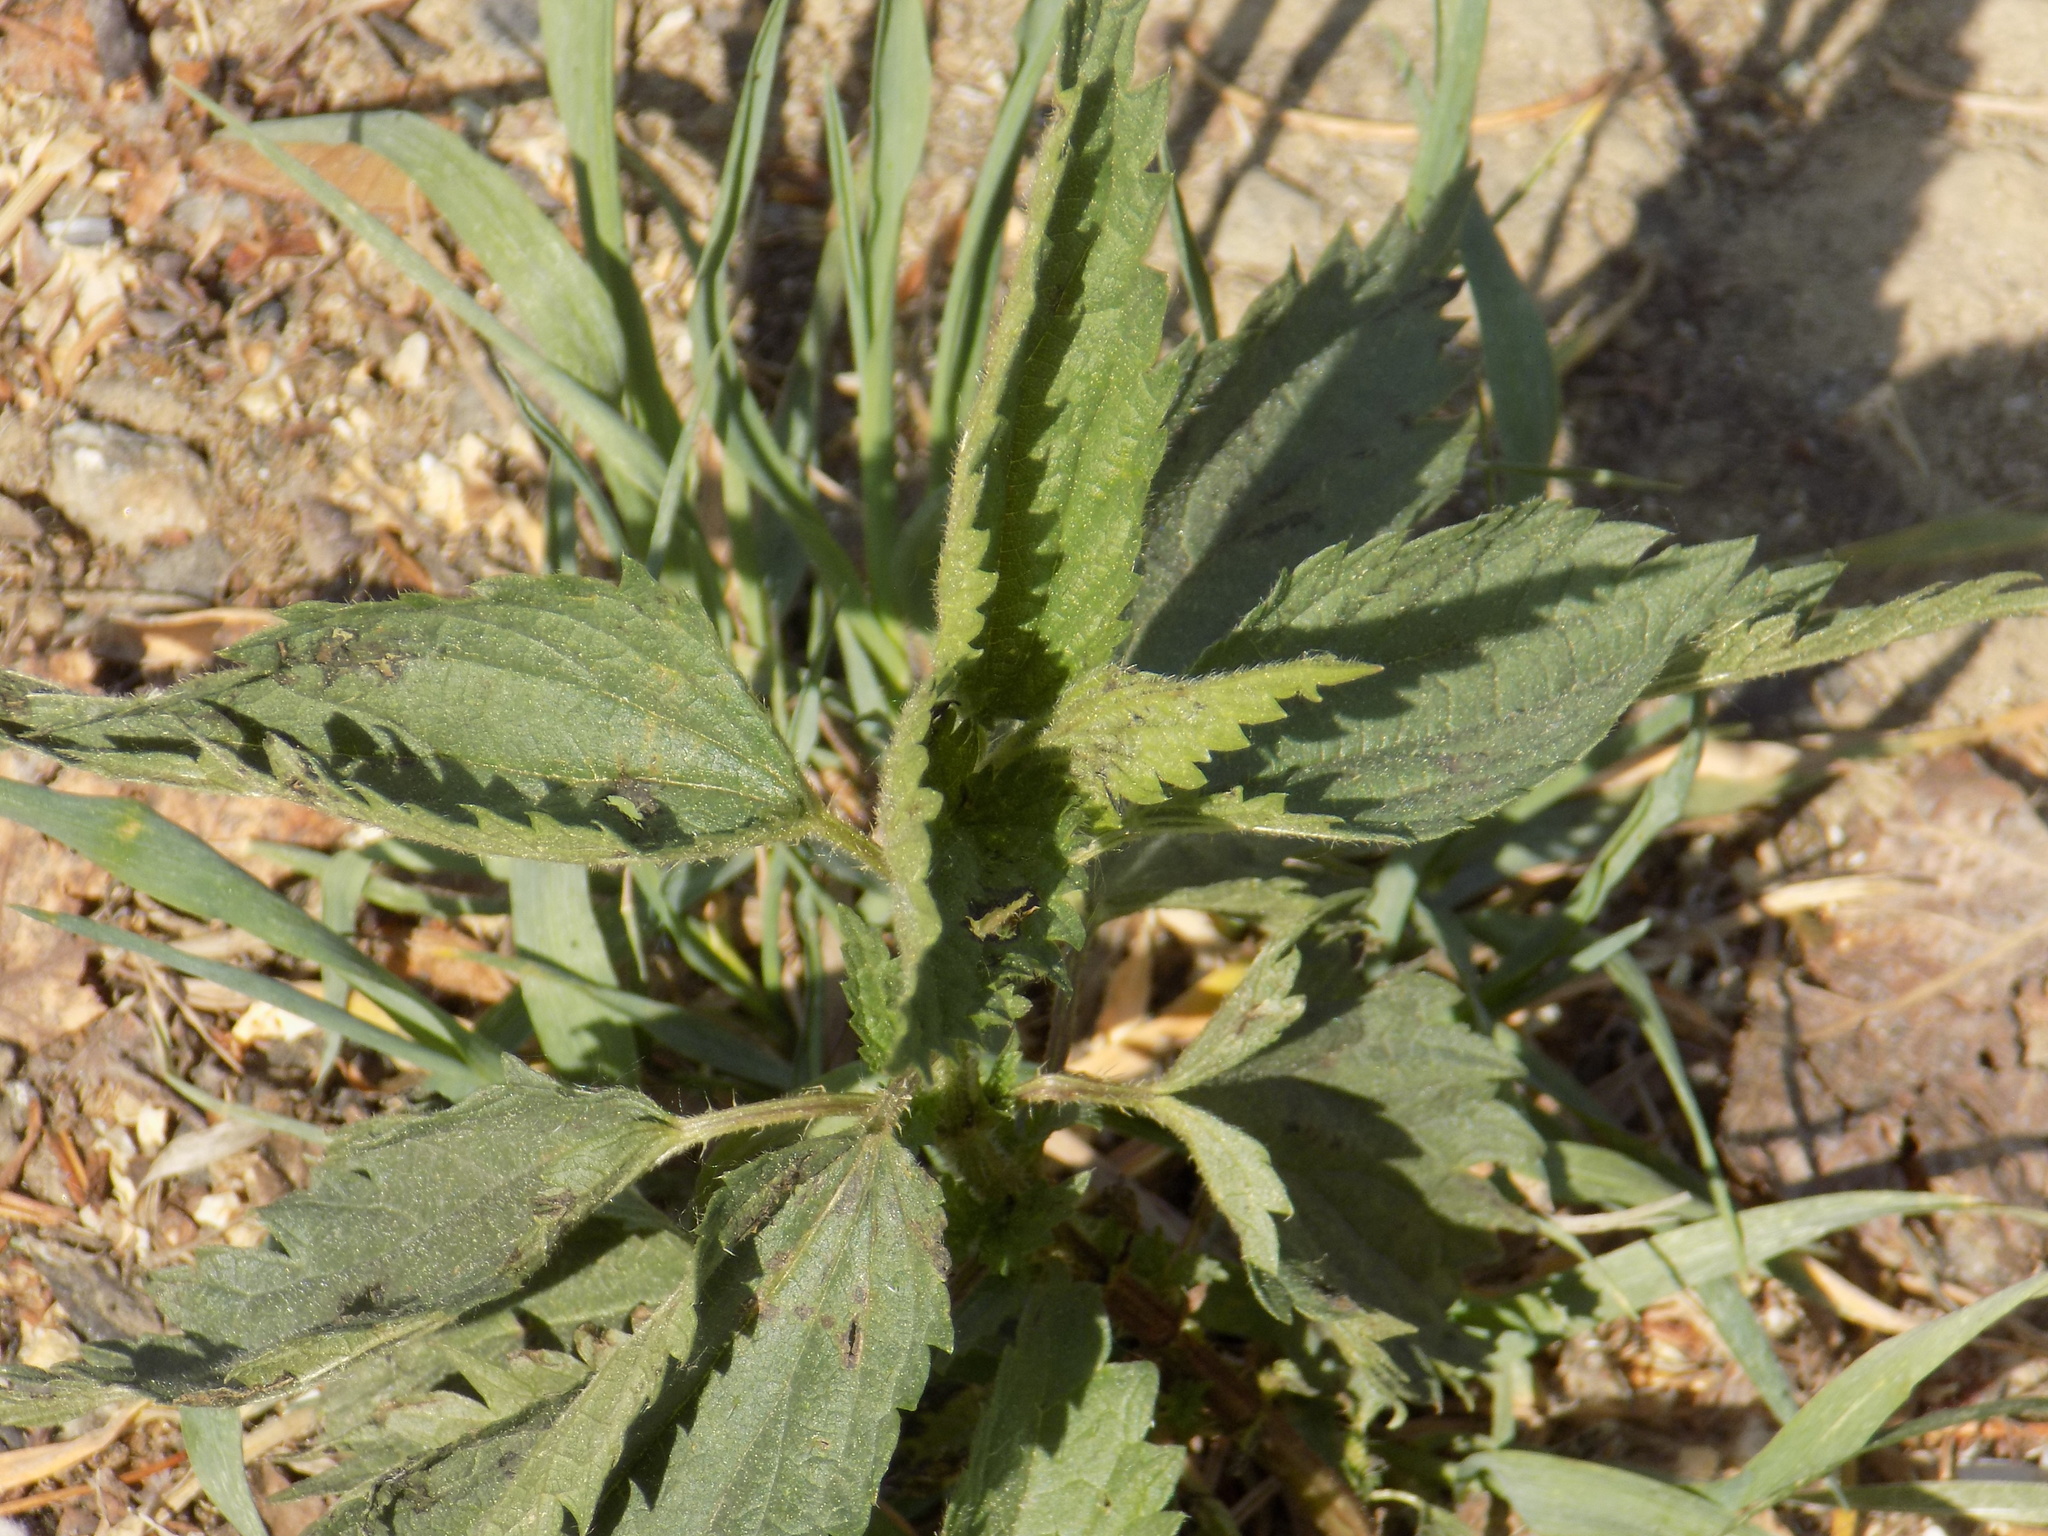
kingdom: Plantae
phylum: Tracheophyta
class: Magnoliopsida
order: Rosales
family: Urticaceae
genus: Urtica
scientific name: Urtica dioica
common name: Common nettle
